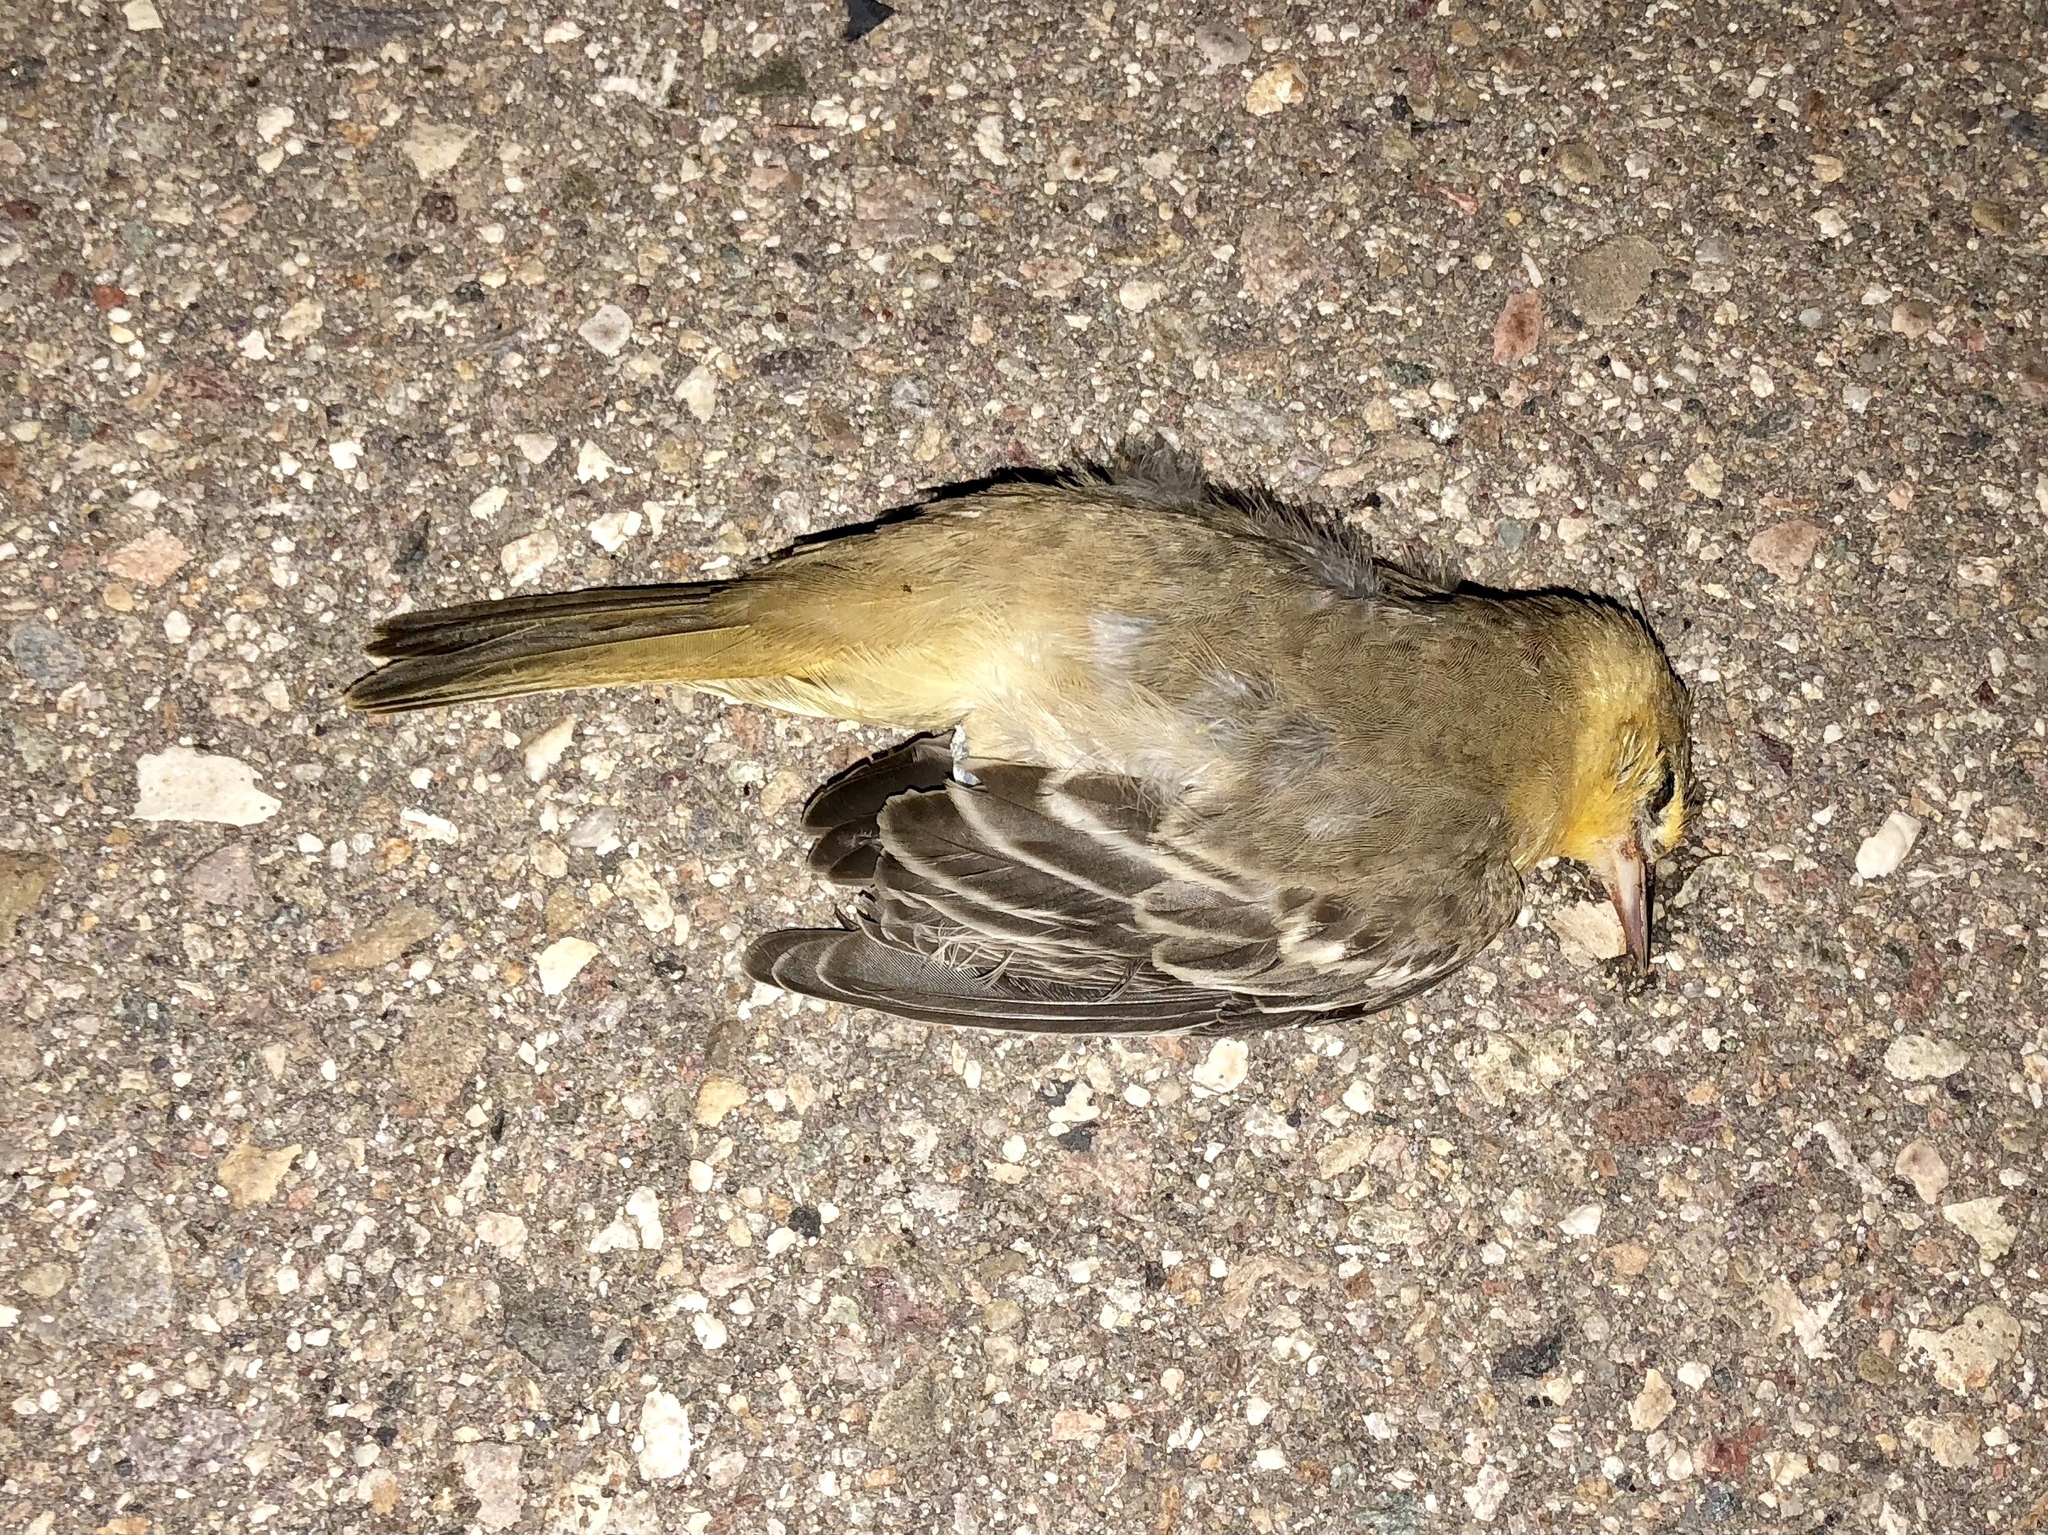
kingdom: Animalia
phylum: Chordata
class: Aves
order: Passeriformes
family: Icteridae
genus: Icterus
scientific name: Icterus cucullatus
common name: Hooded oriole
